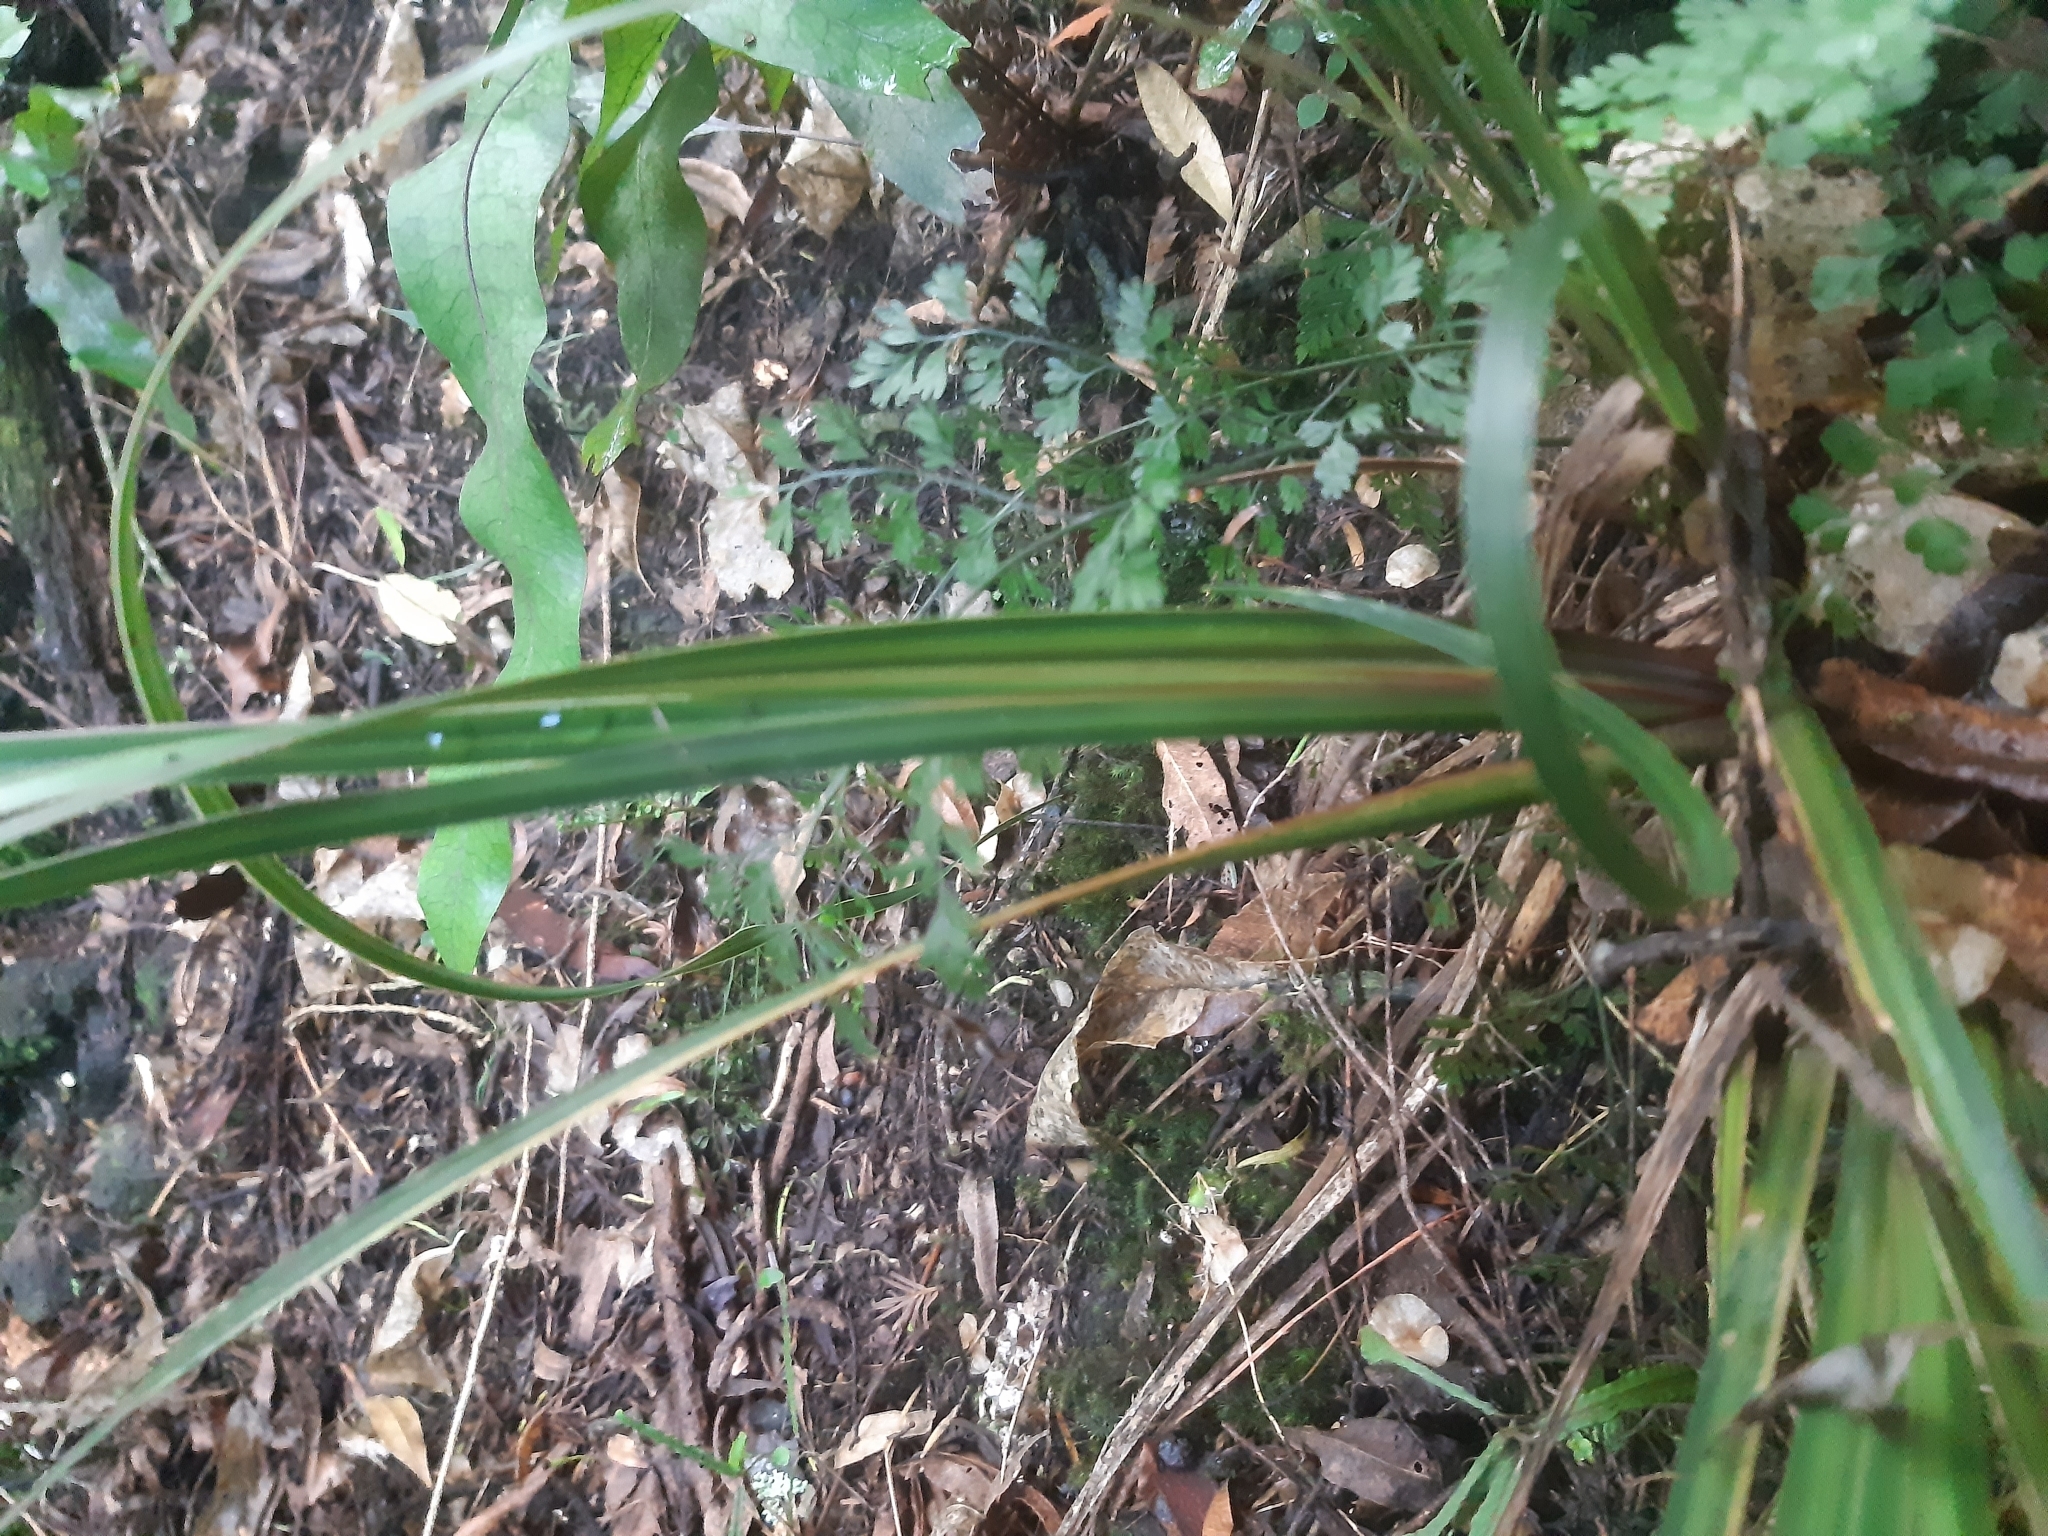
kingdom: Plantae
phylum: Tracheophyta
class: Liliopsida
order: Asparagales
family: Iridaceae
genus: Libertia
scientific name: Libertia ixioides
